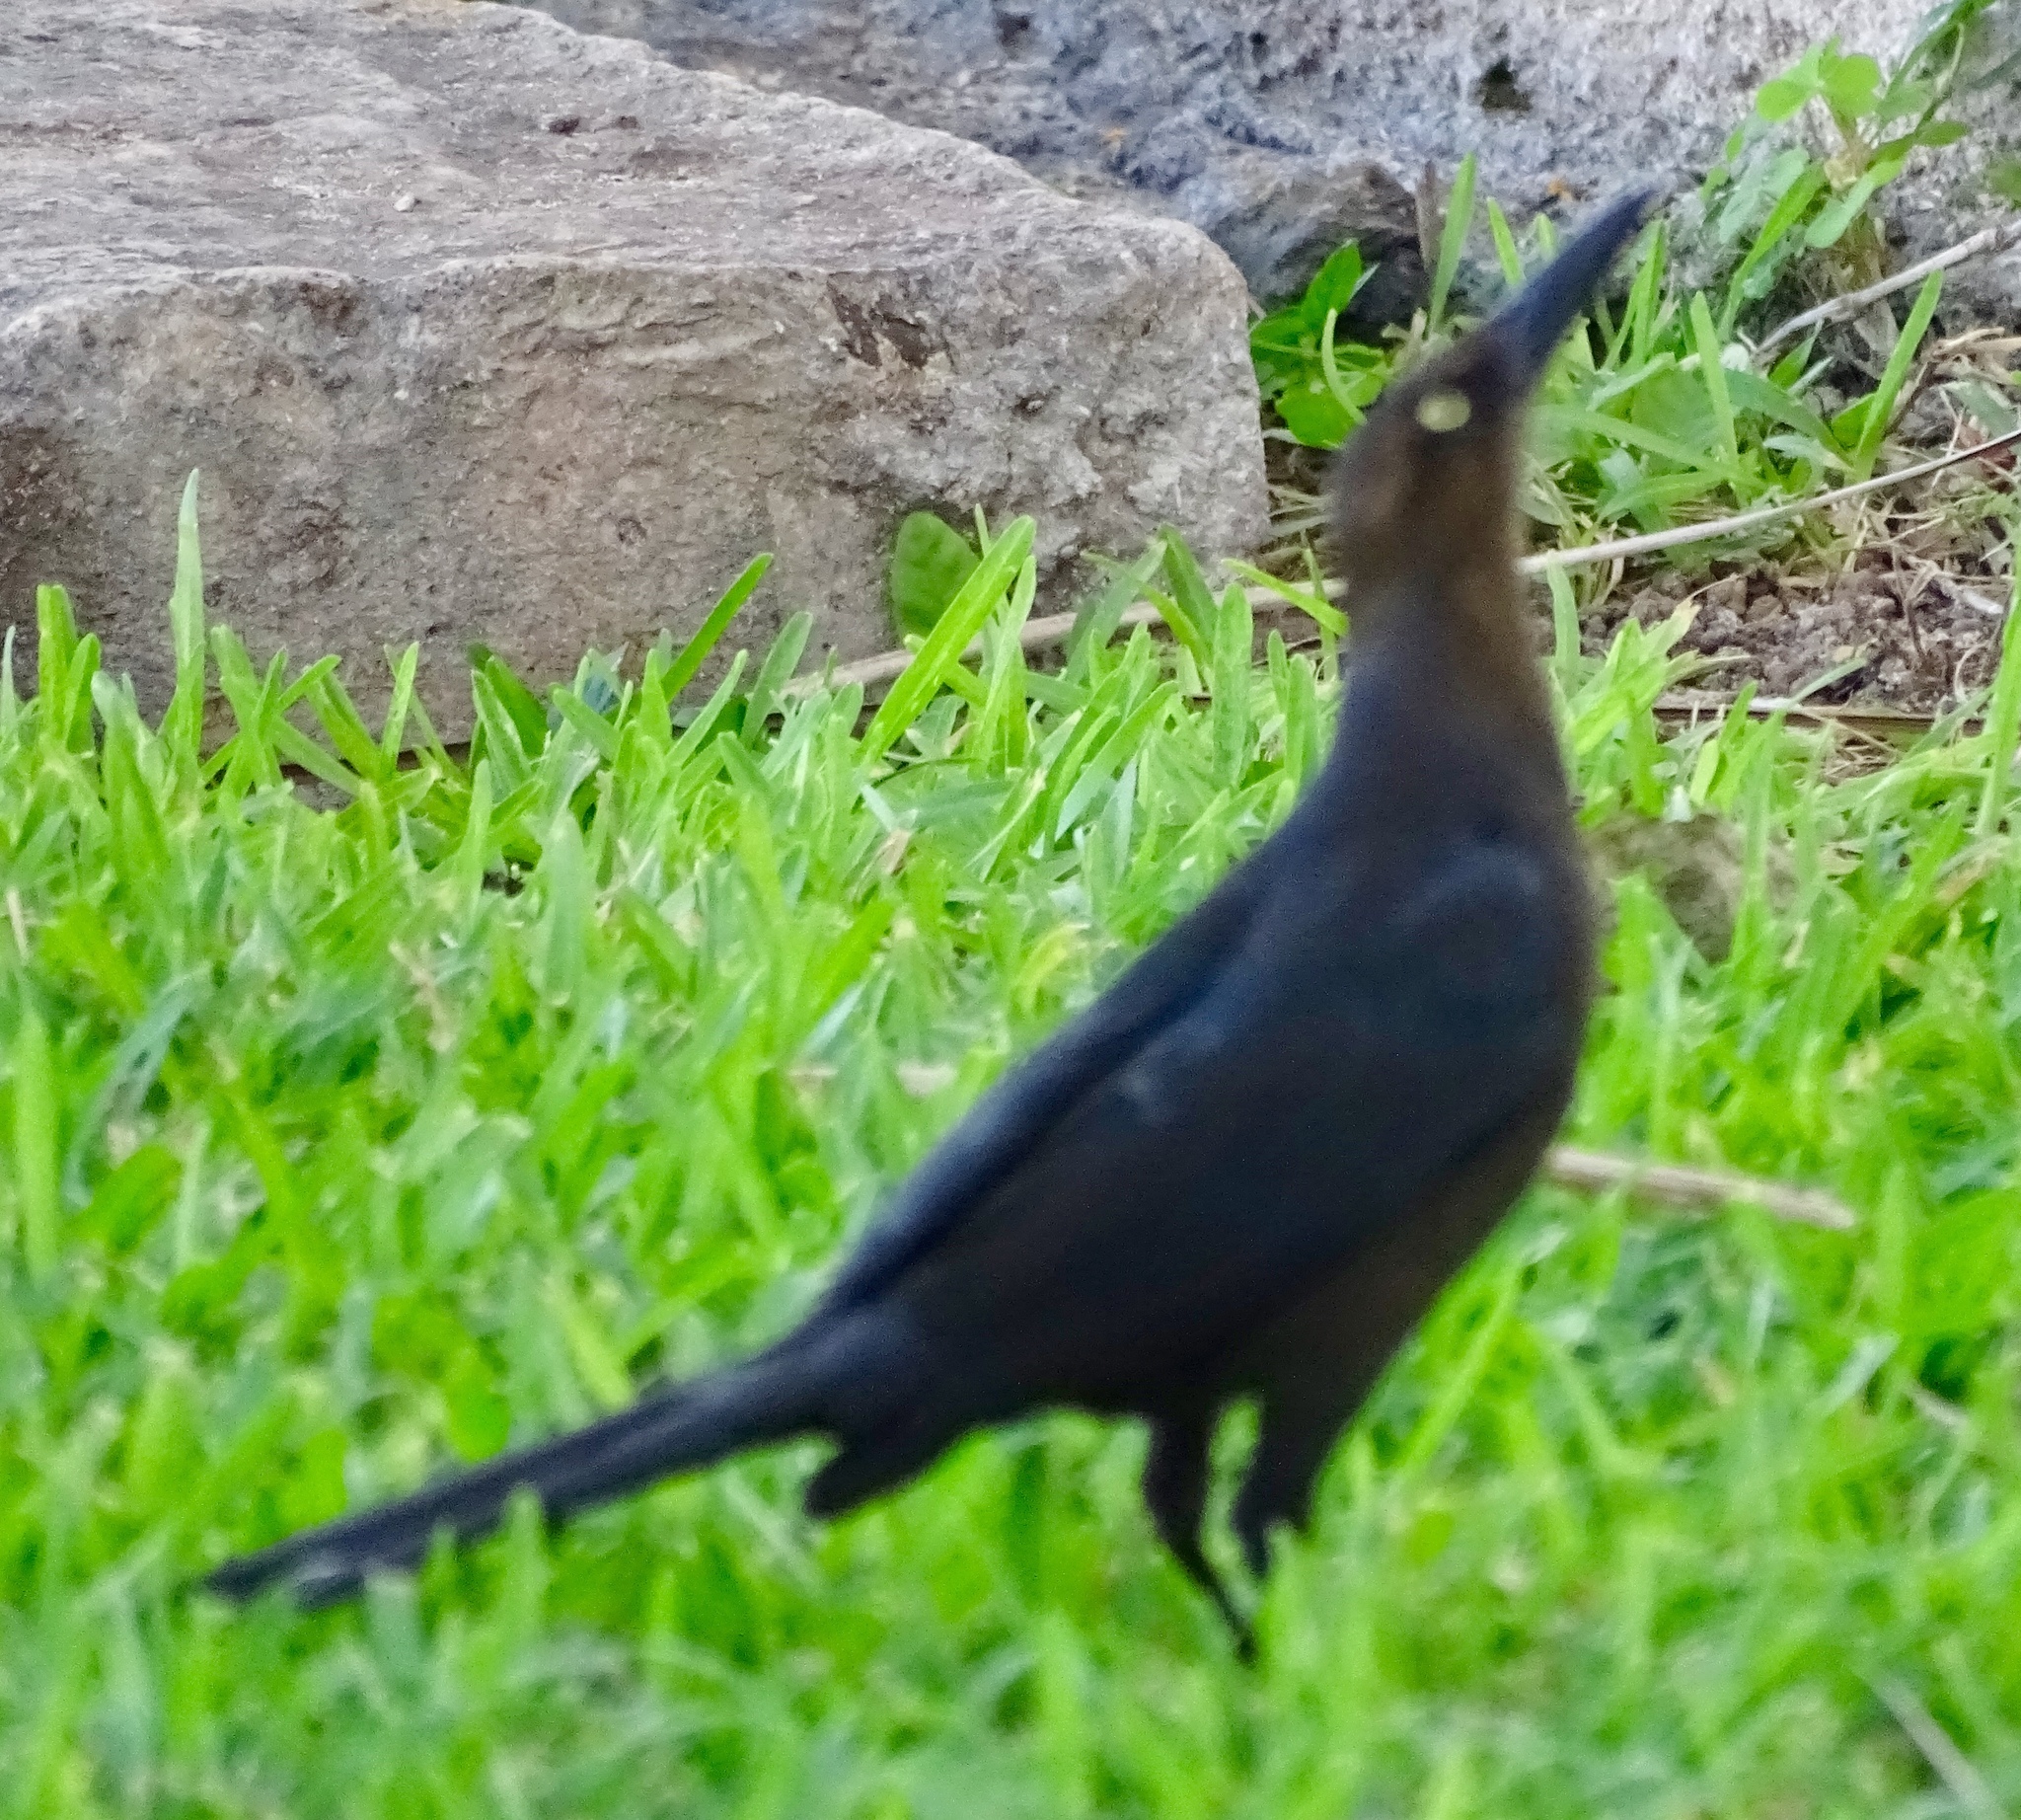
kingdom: Animalia
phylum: Chordata
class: Aves
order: Passeriformes
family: Icteridae
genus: Quiscalus
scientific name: Quiscalus mexicanus
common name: Great-tailed grackle
